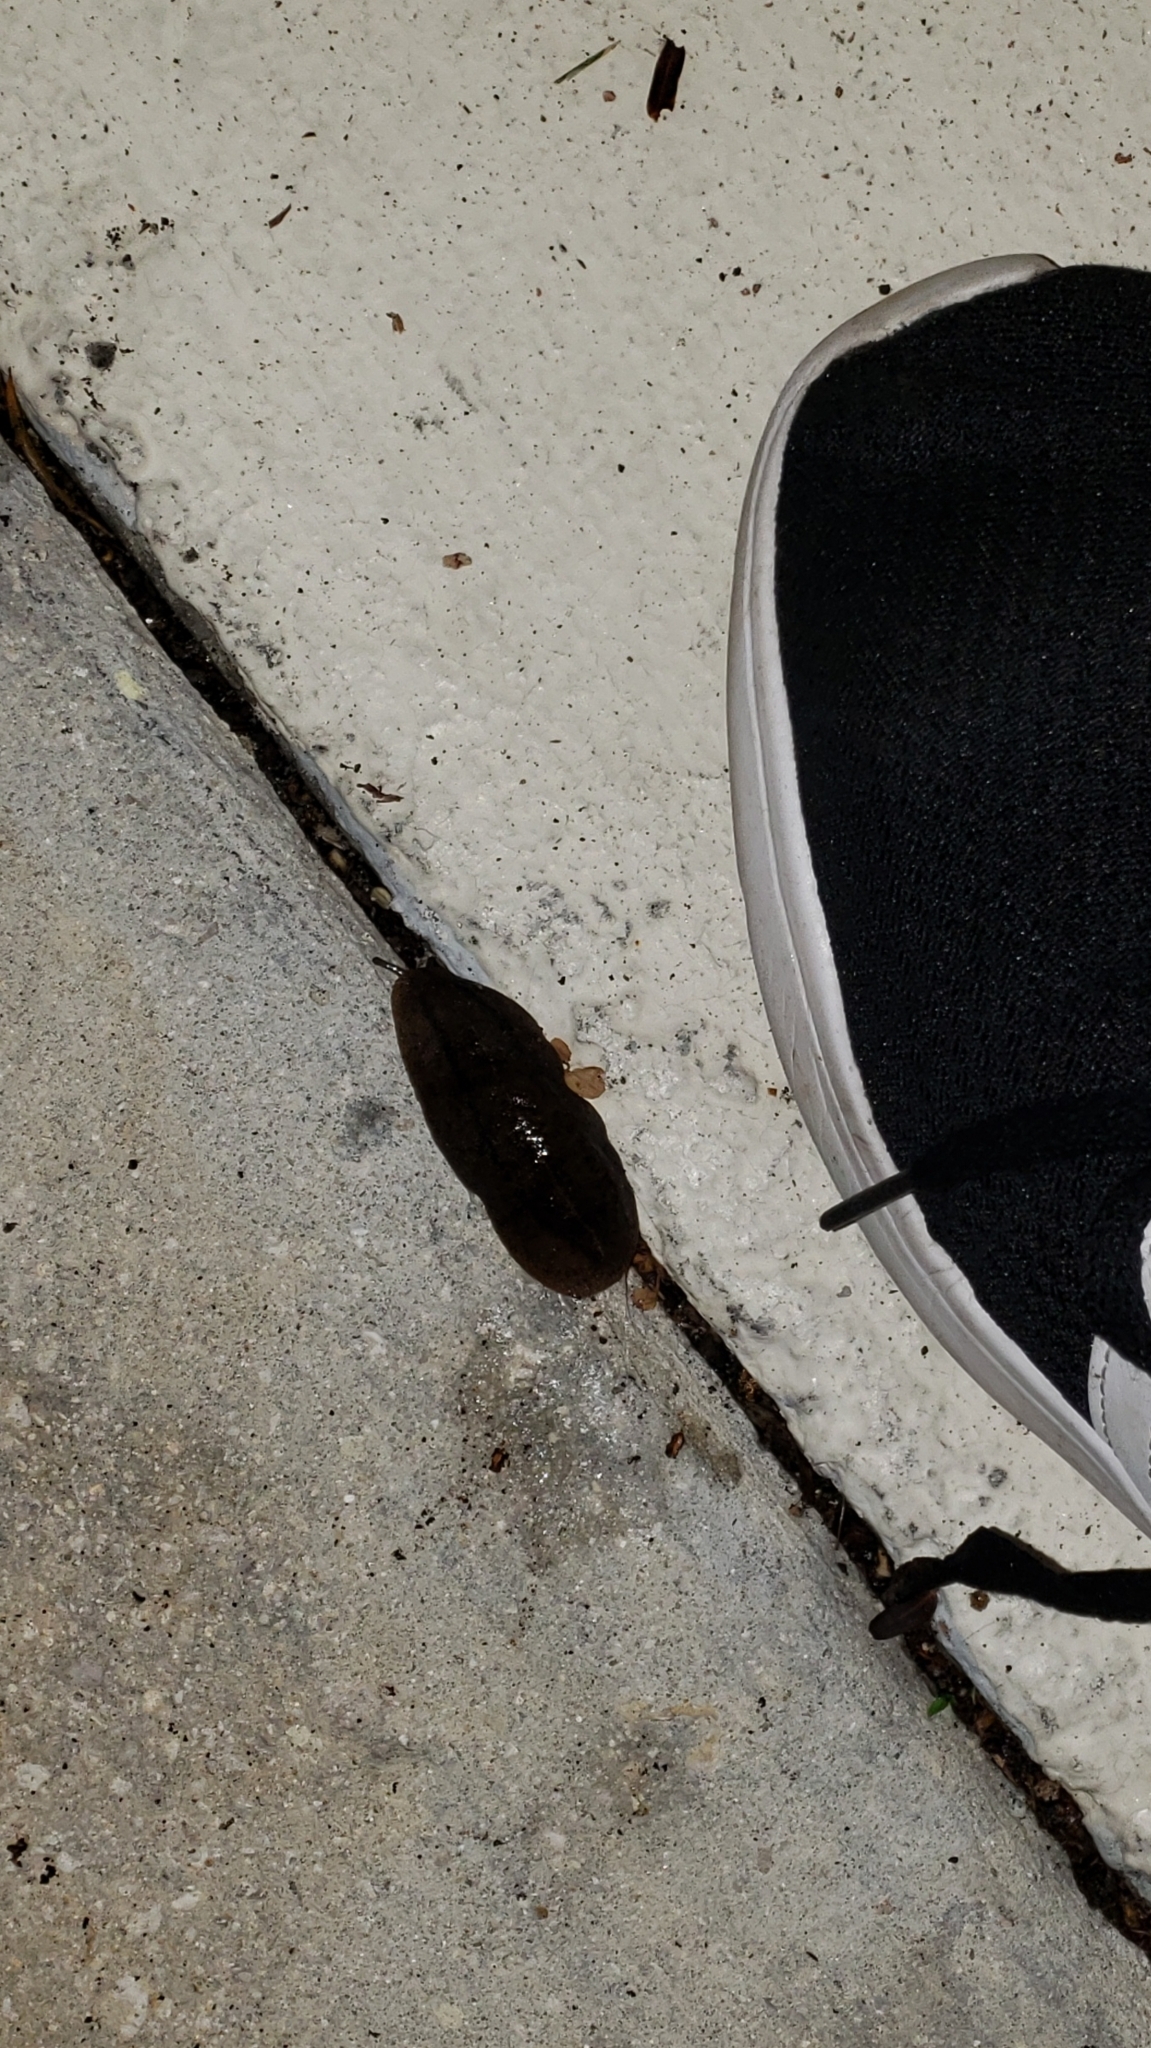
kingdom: Animalia
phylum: Mollusca
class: Gastropoda
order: Systellommatophora
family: Veronicellidae
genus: Leidyula
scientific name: Leidyula floridana
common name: Florida leatherleaf
